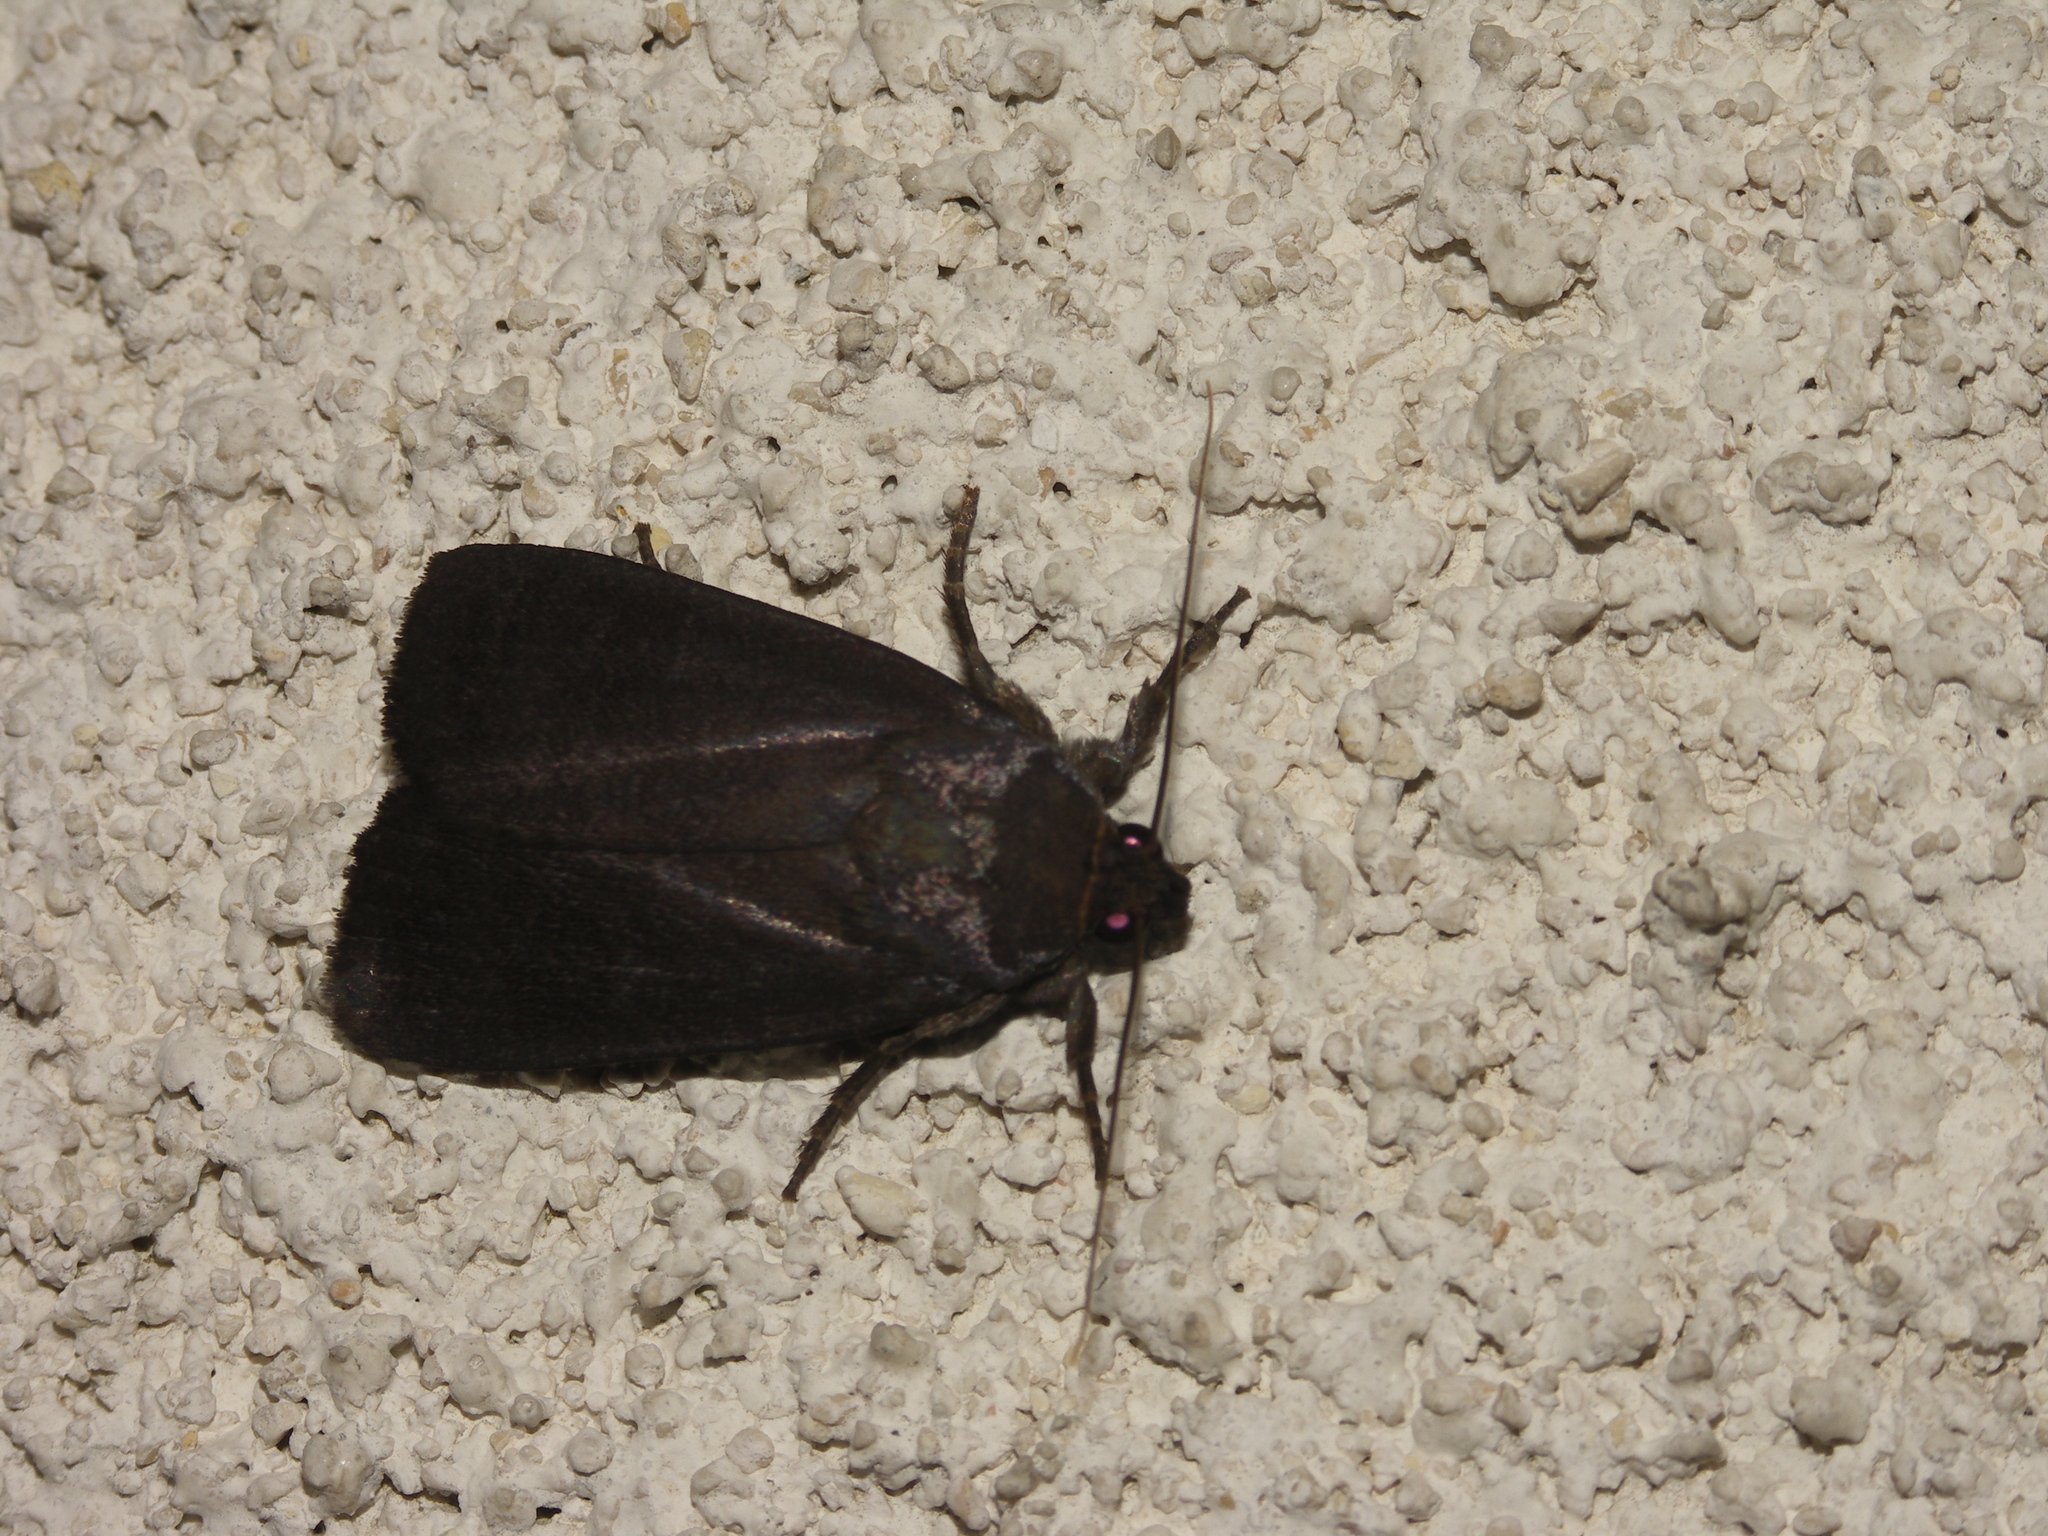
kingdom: Animalia
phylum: Arthropoda
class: Insecta
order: Lepidoptera
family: Noctuidae
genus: Amphipyra
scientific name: Amphipyra livida
